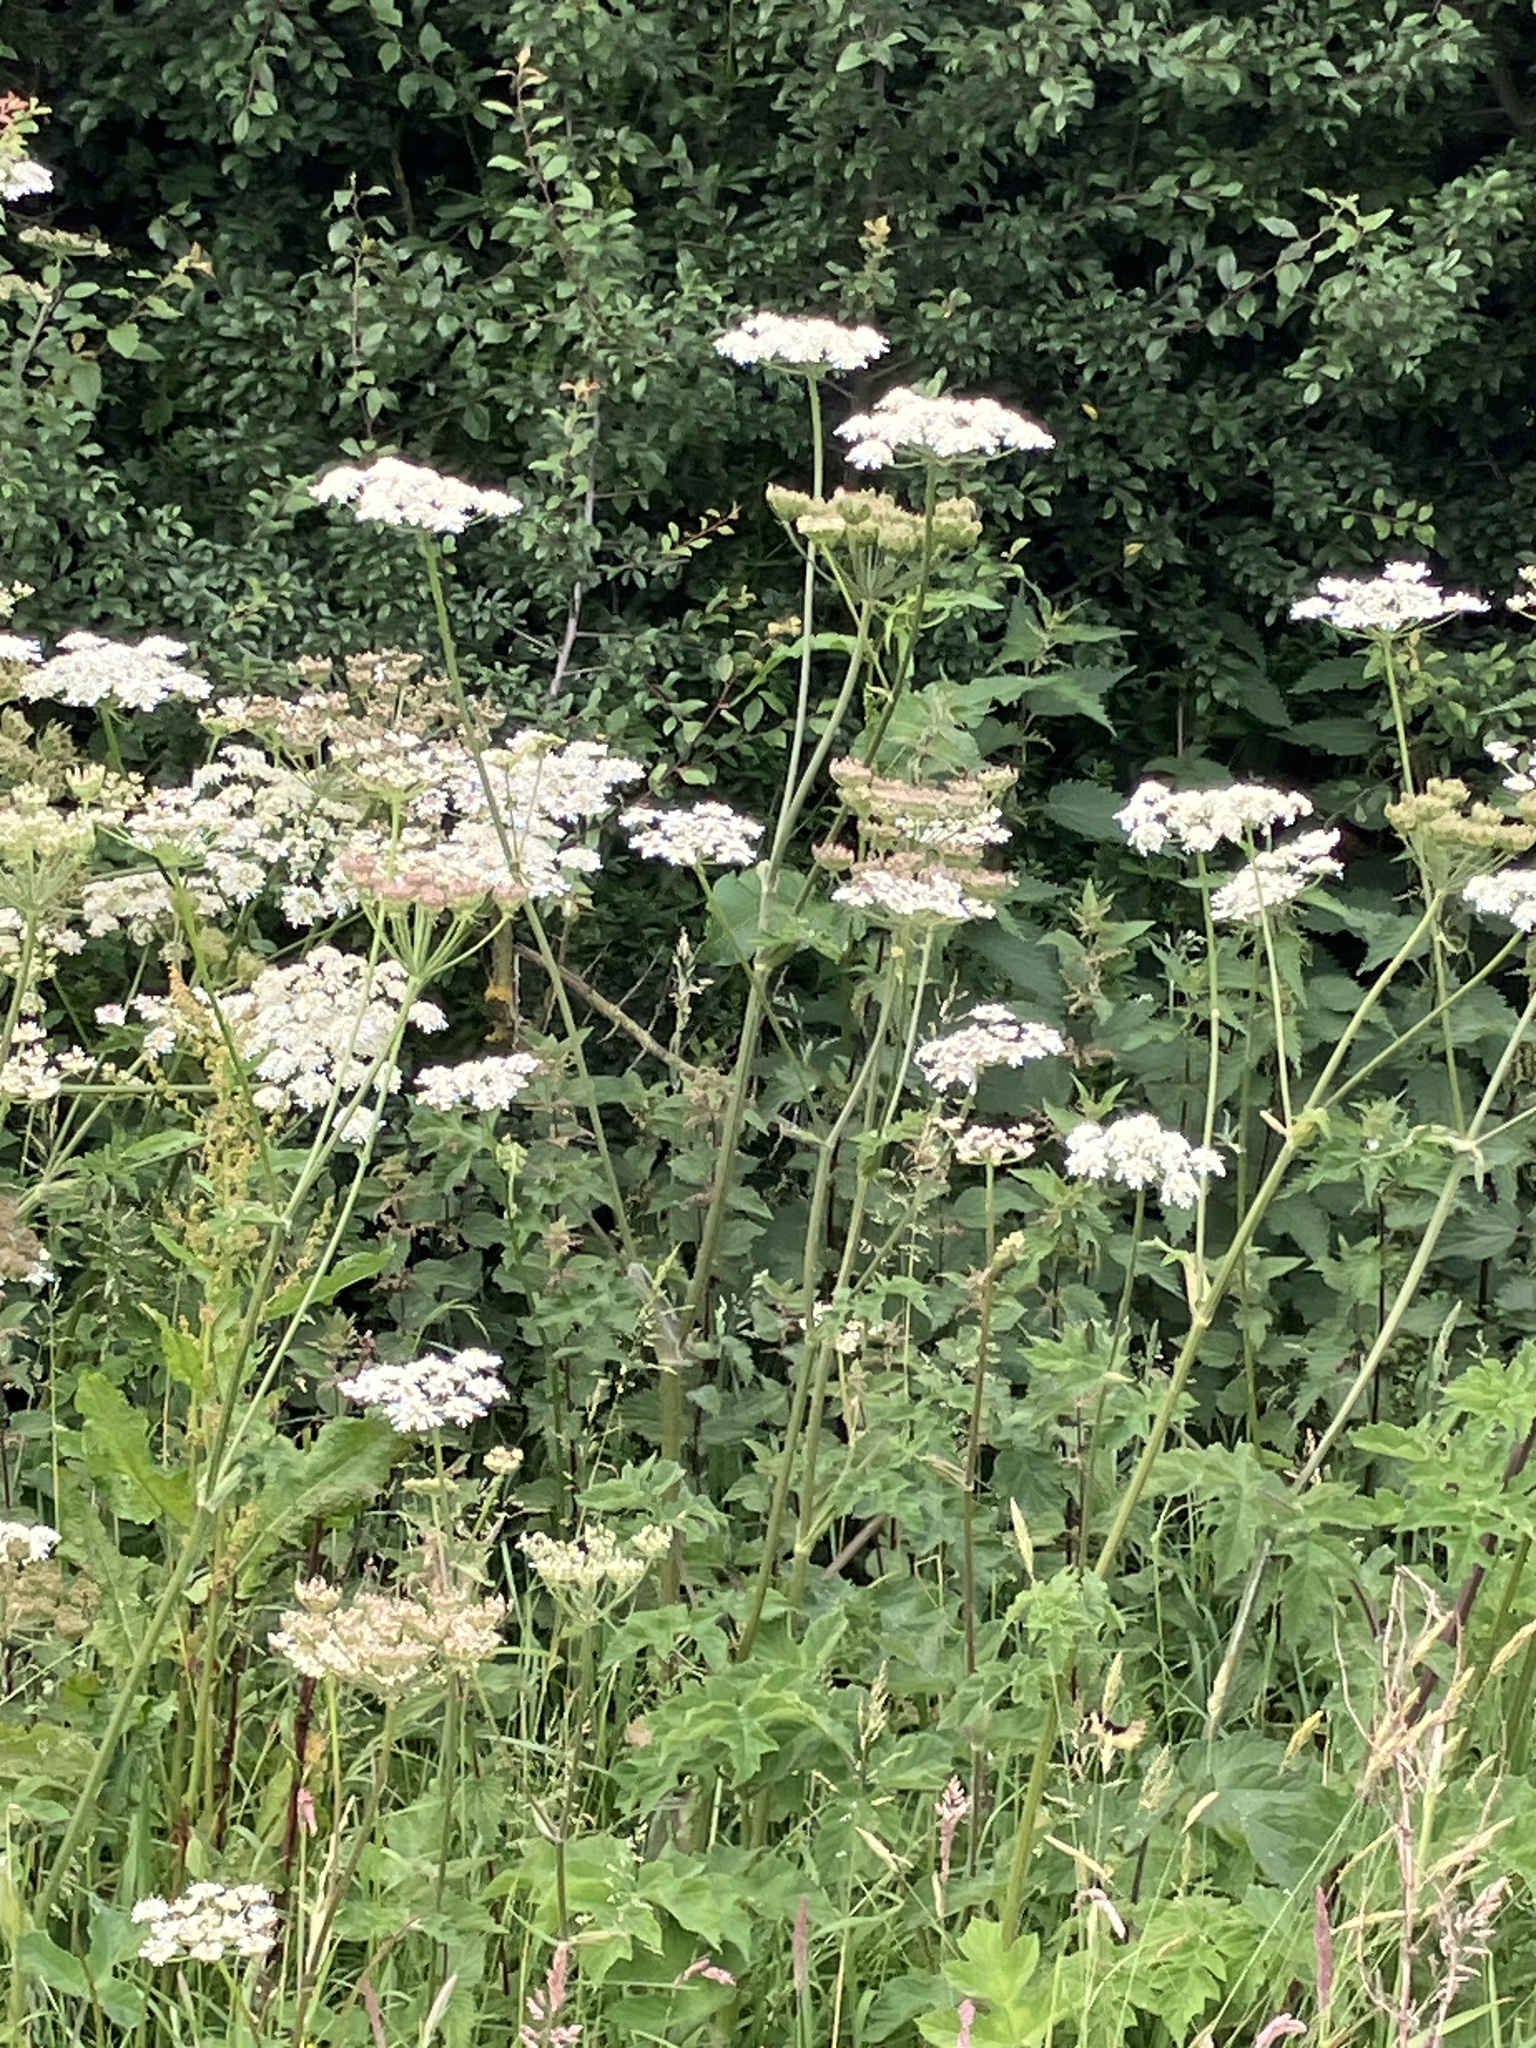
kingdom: Plantae
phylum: Tracheophyta
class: Magnoliopsida
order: Apiales
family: Apiaceae
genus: Heracleum
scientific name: Heracleum sphondylium
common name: Hogweed
